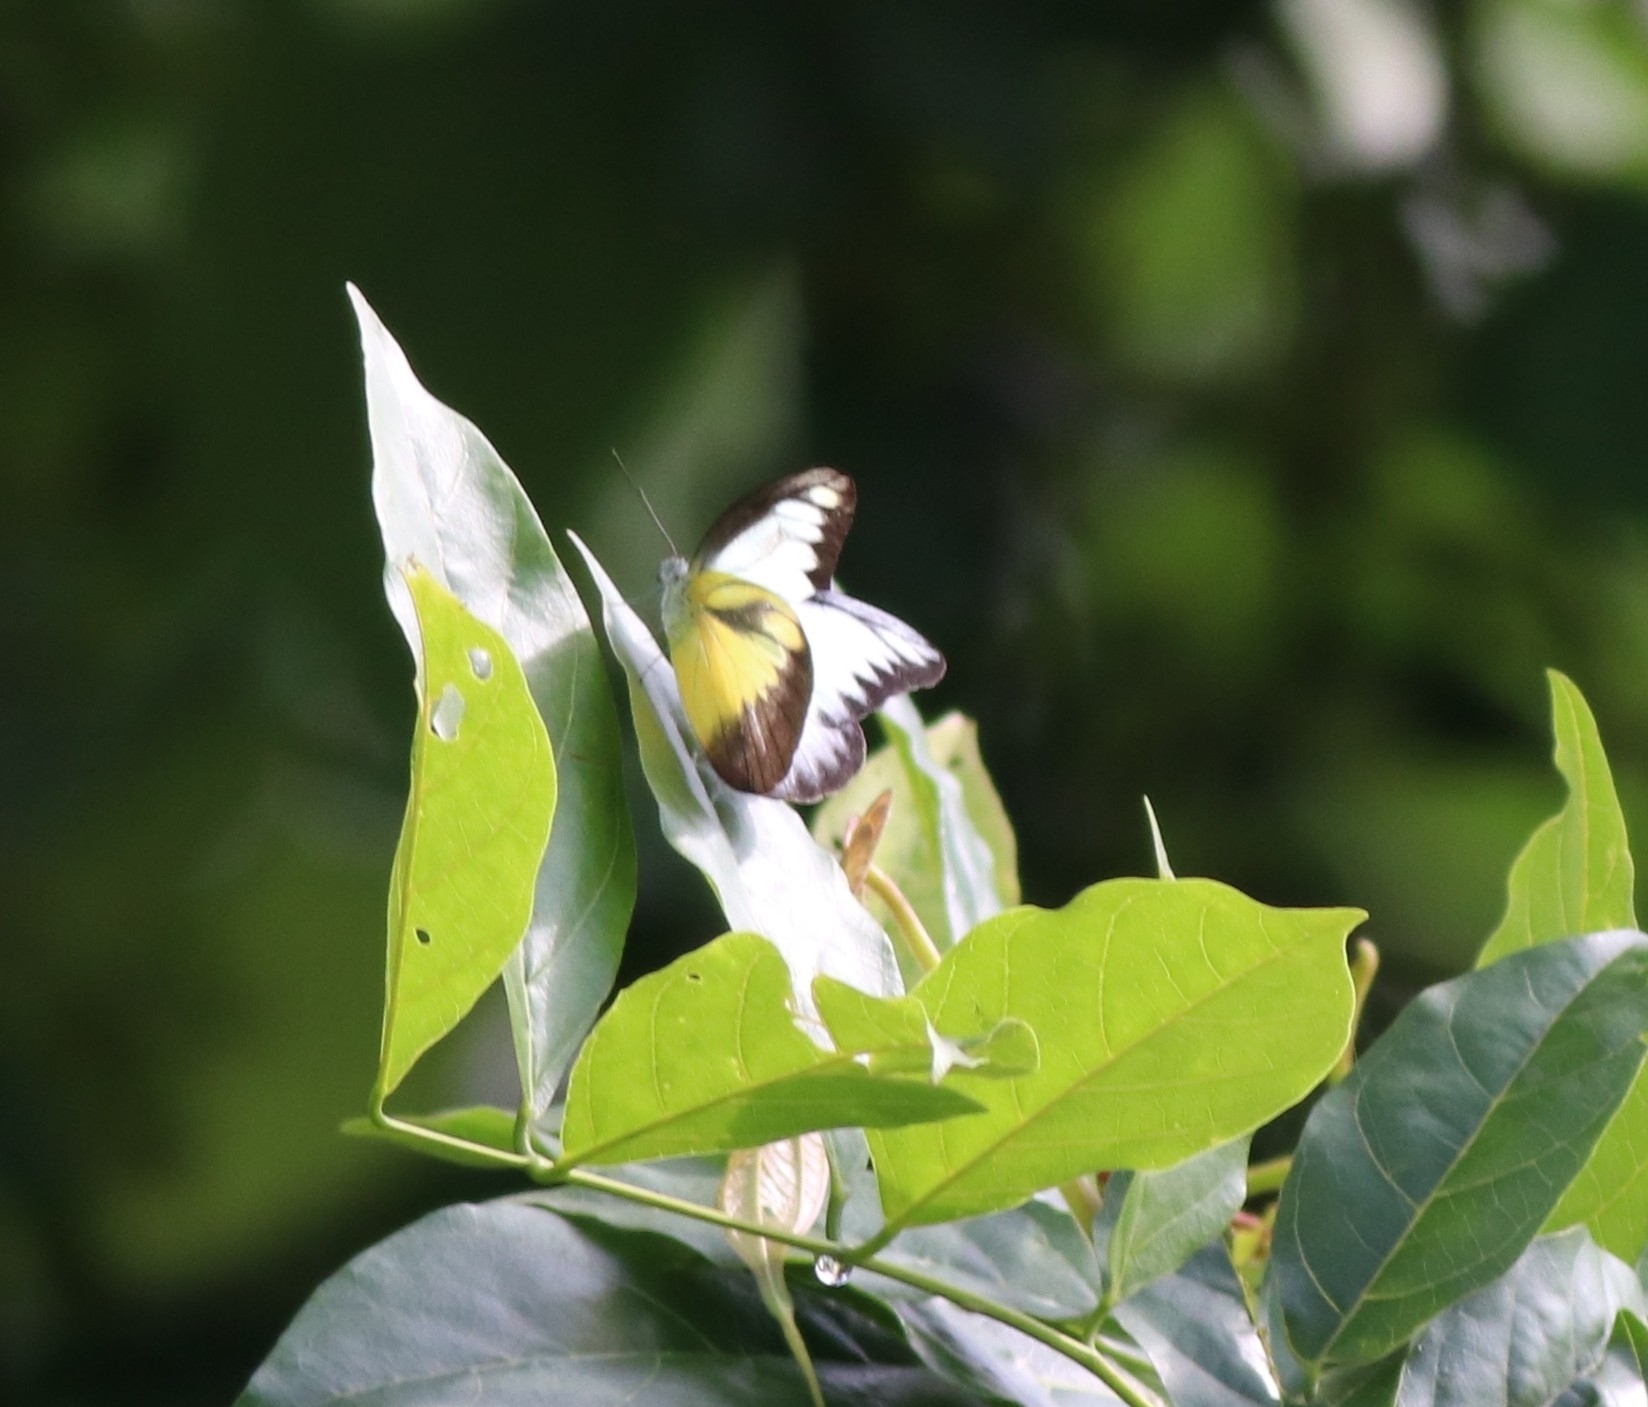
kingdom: Animalia
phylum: Arthropoda
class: Insecta
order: Lepidoptera
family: Pieridae
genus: Appias
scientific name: Appias lyncida
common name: Chocolate albatross
